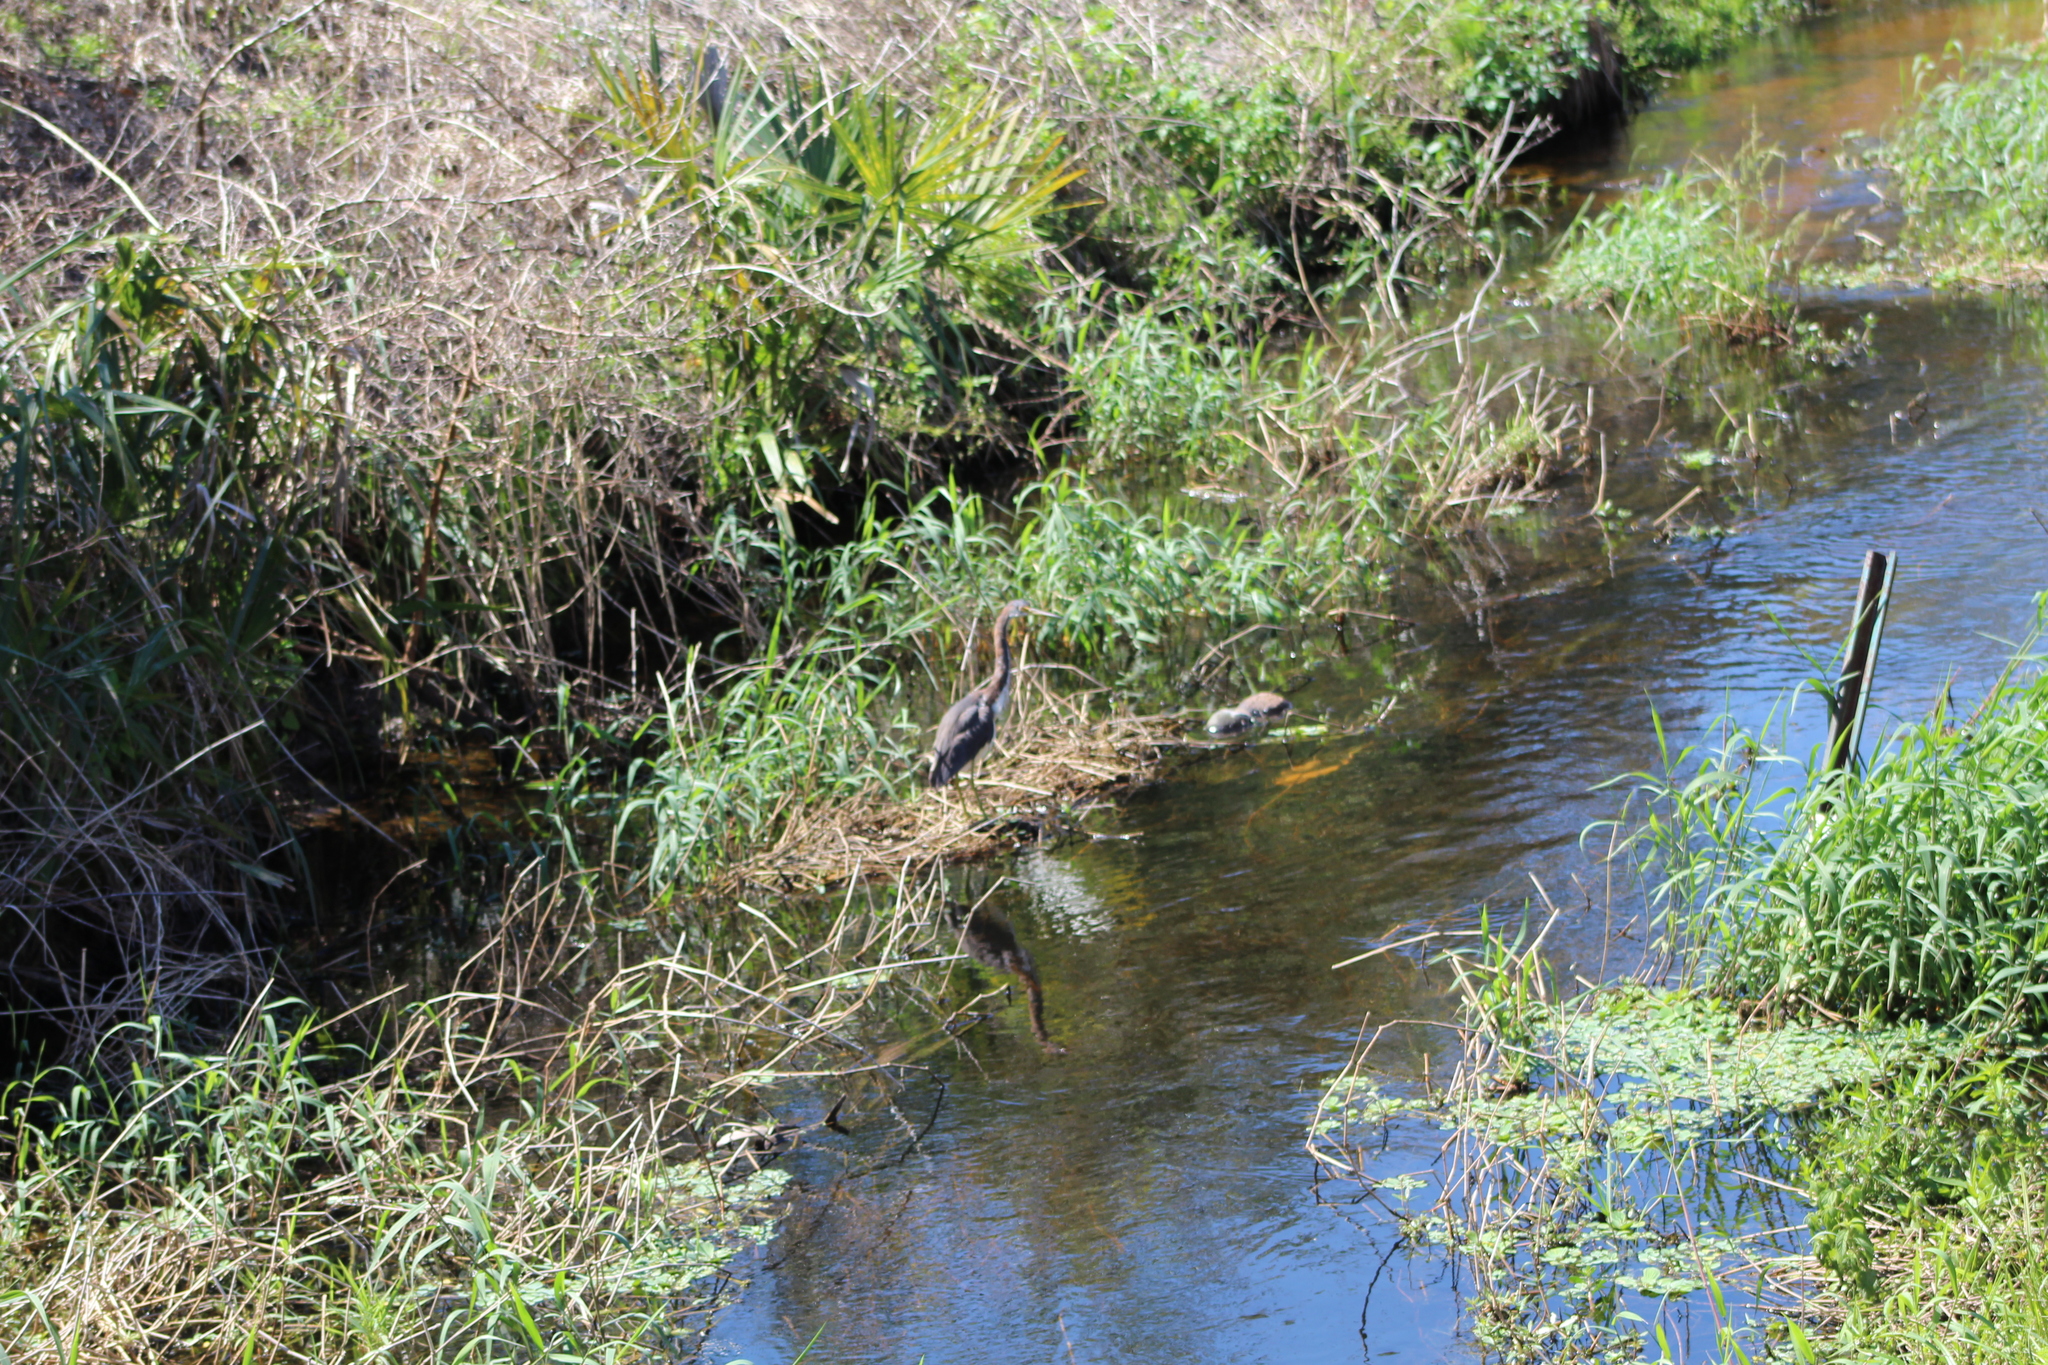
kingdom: Animalia
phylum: Chordata
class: Aves
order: Pelecaniformes
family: Ardeidae
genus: Egretta
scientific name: Egretta tricolor
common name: Tricolored heron
